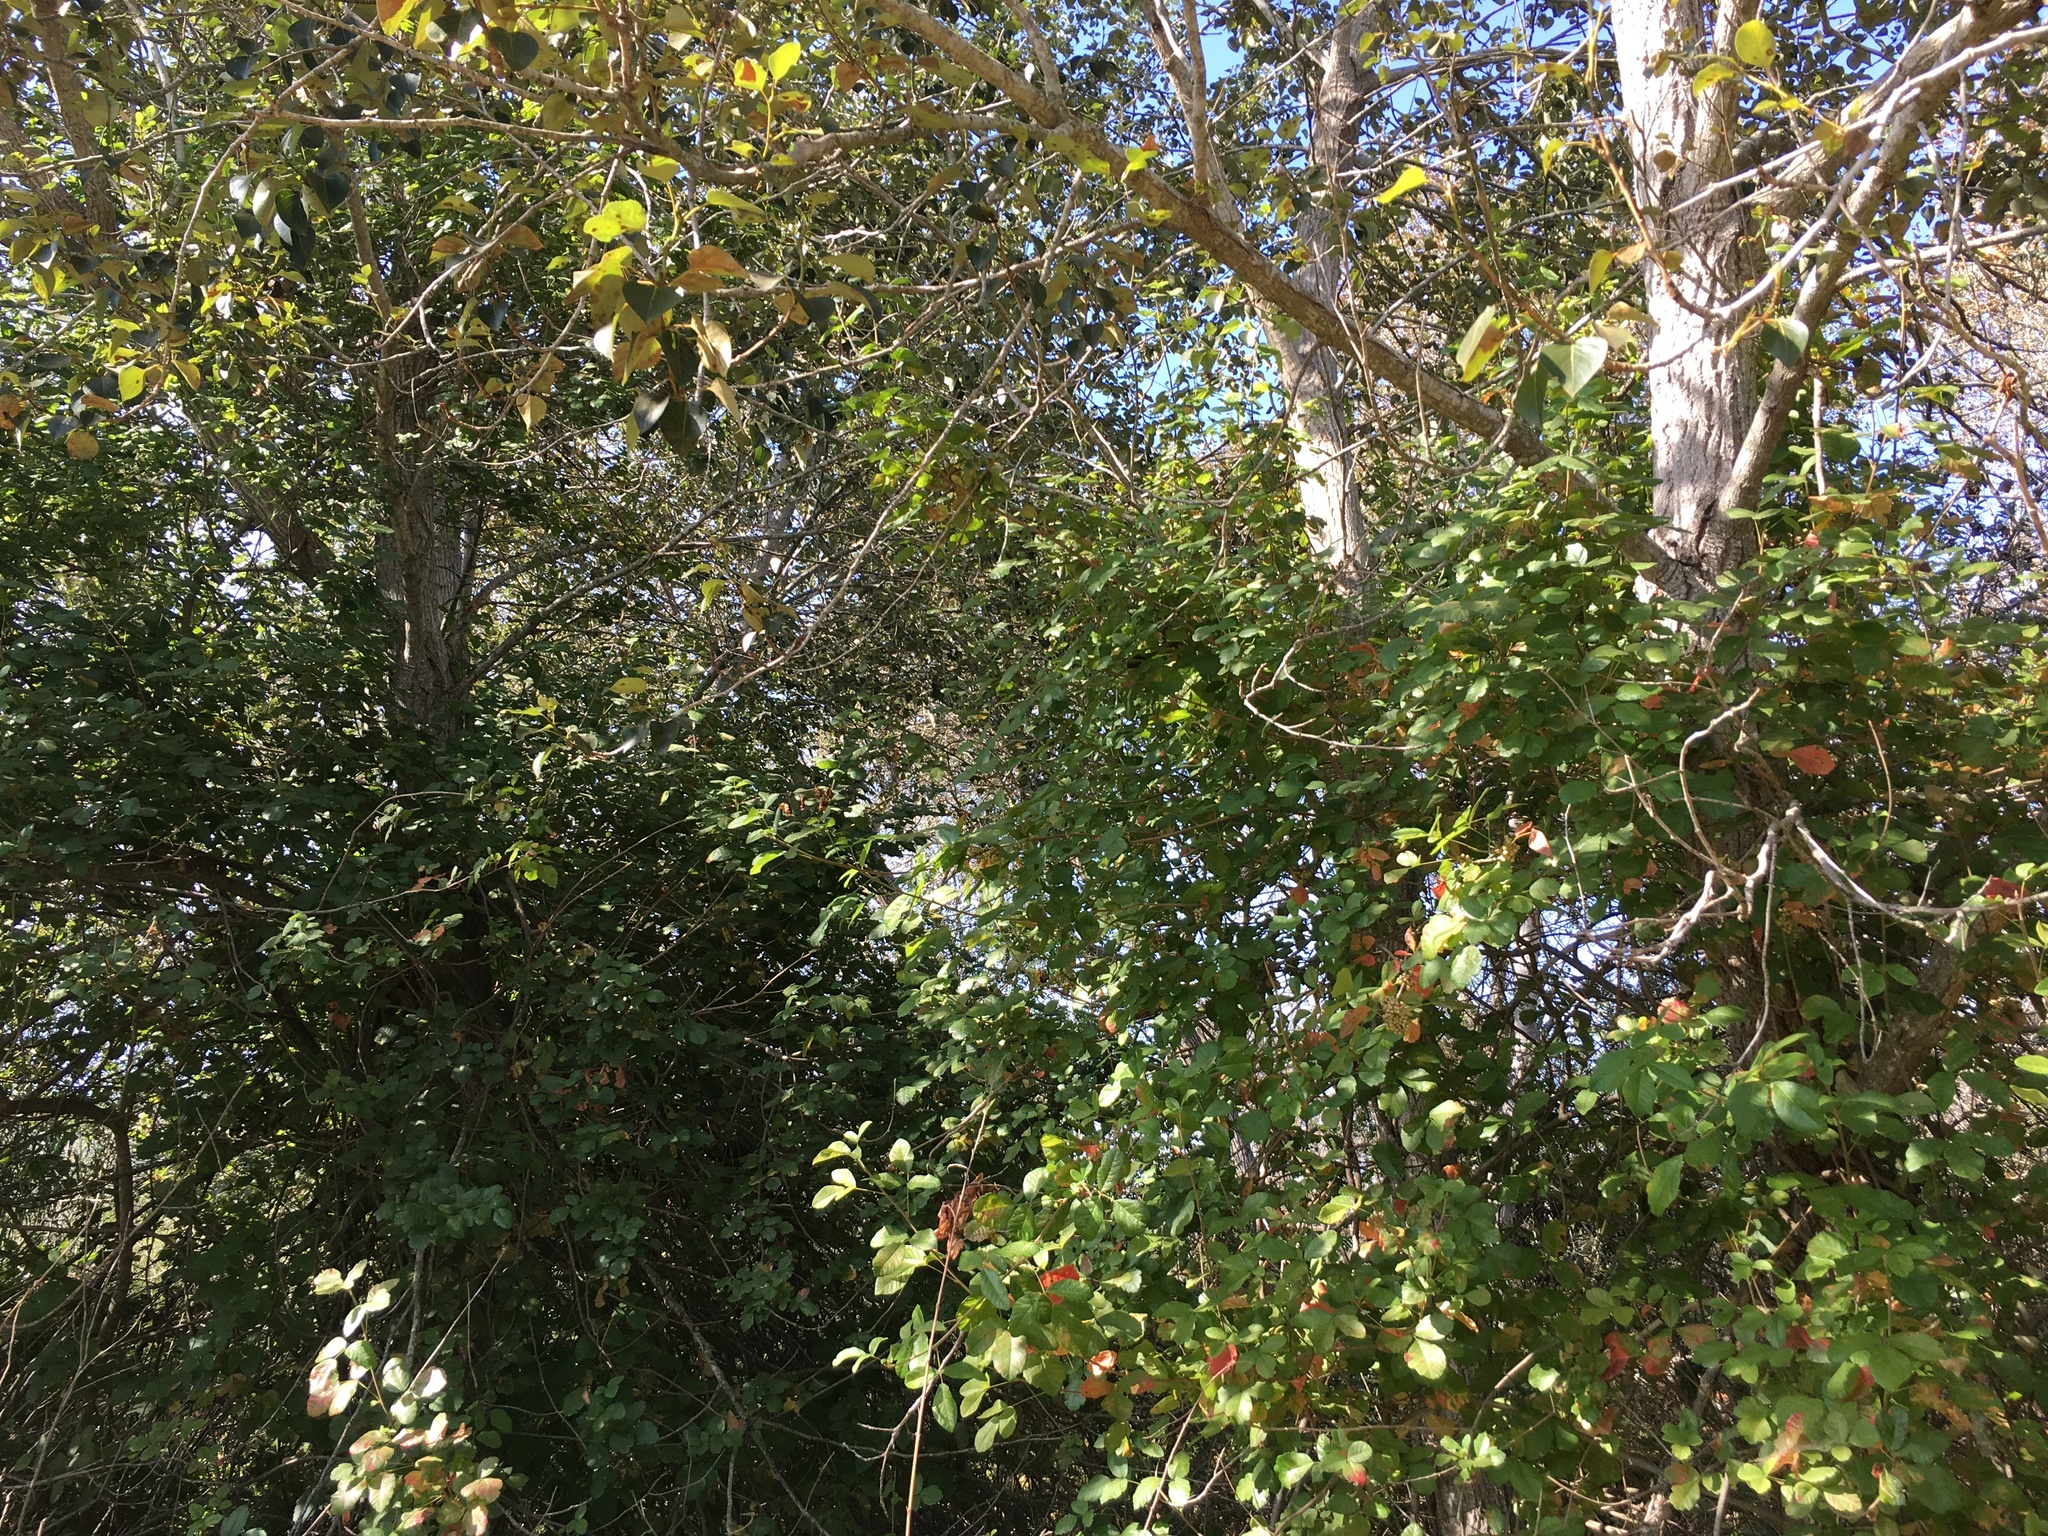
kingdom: Plantae
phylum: Tracheophyta
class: Magnoliopsida
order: Malpighiales
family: Salicaceae
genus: Populus
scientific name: Populus trichocarpa
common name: Black cottonwood
